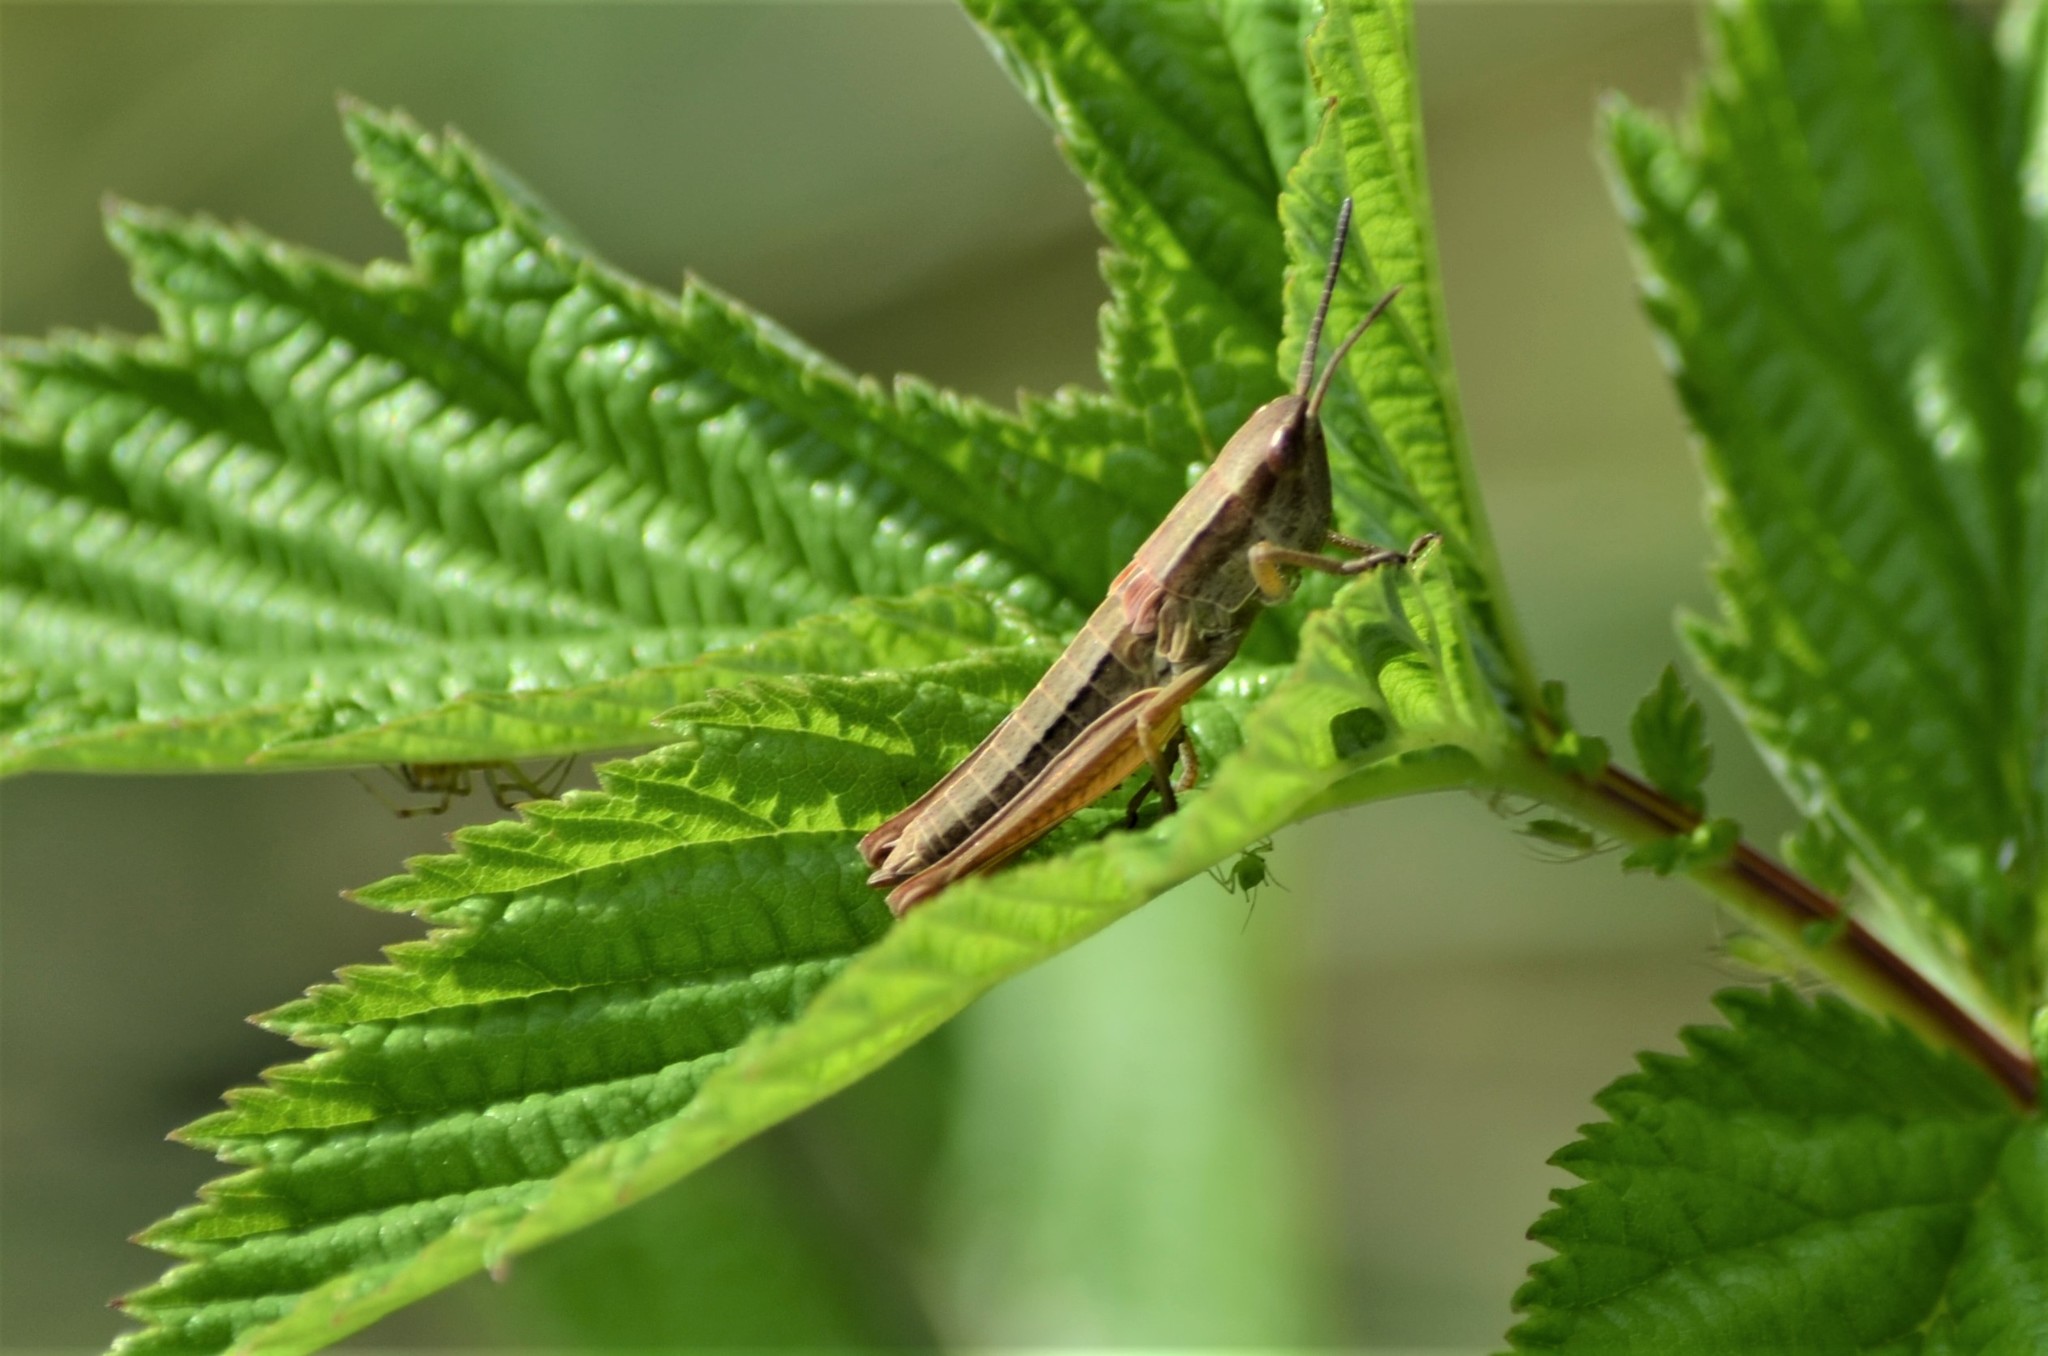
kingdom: Animalia
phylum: Arthropoda
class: Insecta
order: Orthoptera
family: Acrididae
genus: Euthystira
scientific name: Euthystira brachyptera
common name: Small gold grasshopper
